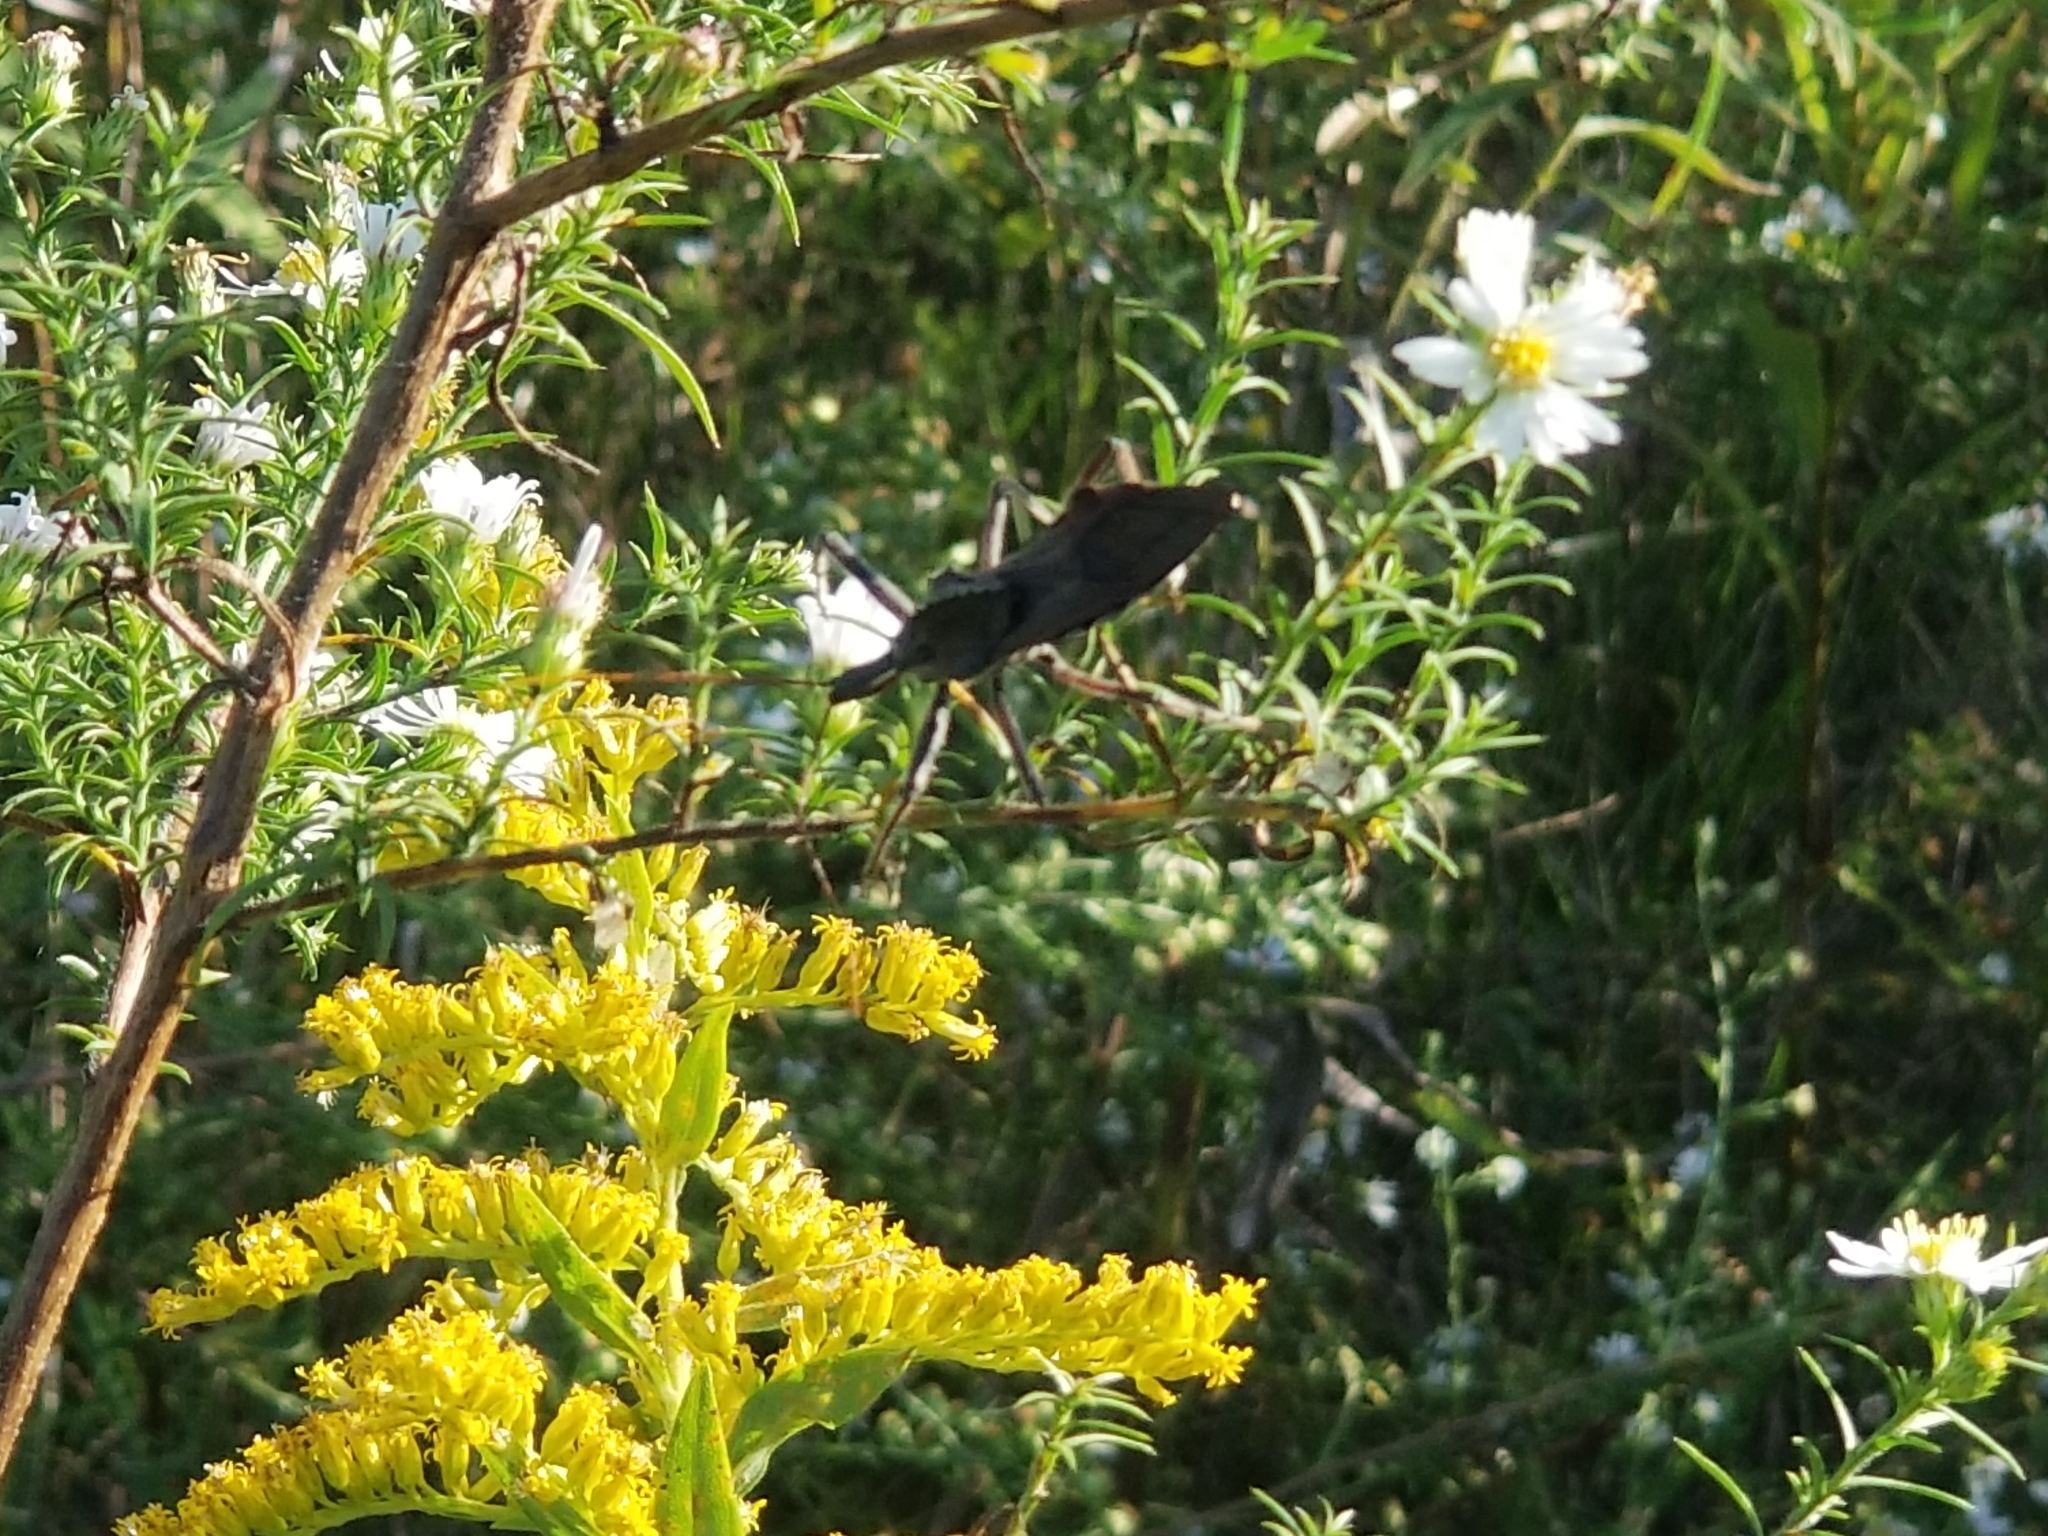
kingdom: Animalia
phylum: Arthropoda
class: Insecta
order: Hemiptera
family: Reduviidae
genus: Arilus
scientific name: Arilus cristatus
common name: North american wheel bug
